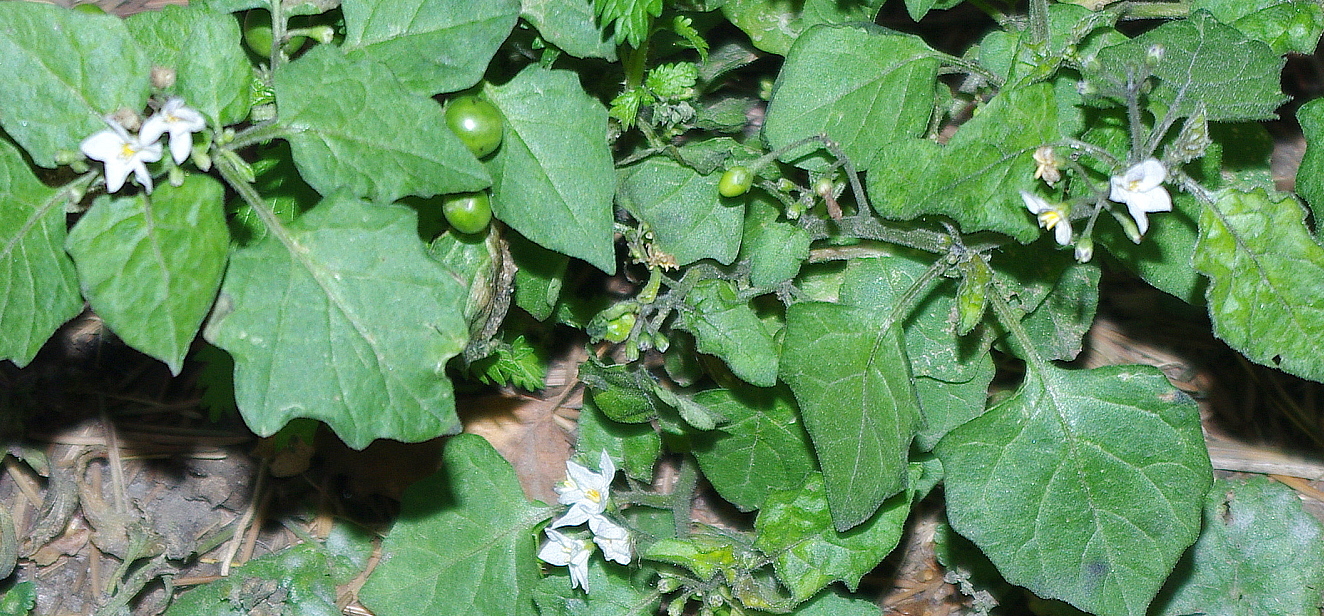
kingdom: Plantae
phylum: Tracheophyta
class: Magnoliopsida
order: Solanales
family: Solanaceae
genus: Solanum
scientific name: Solanum nigrum
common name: Black nightshade
